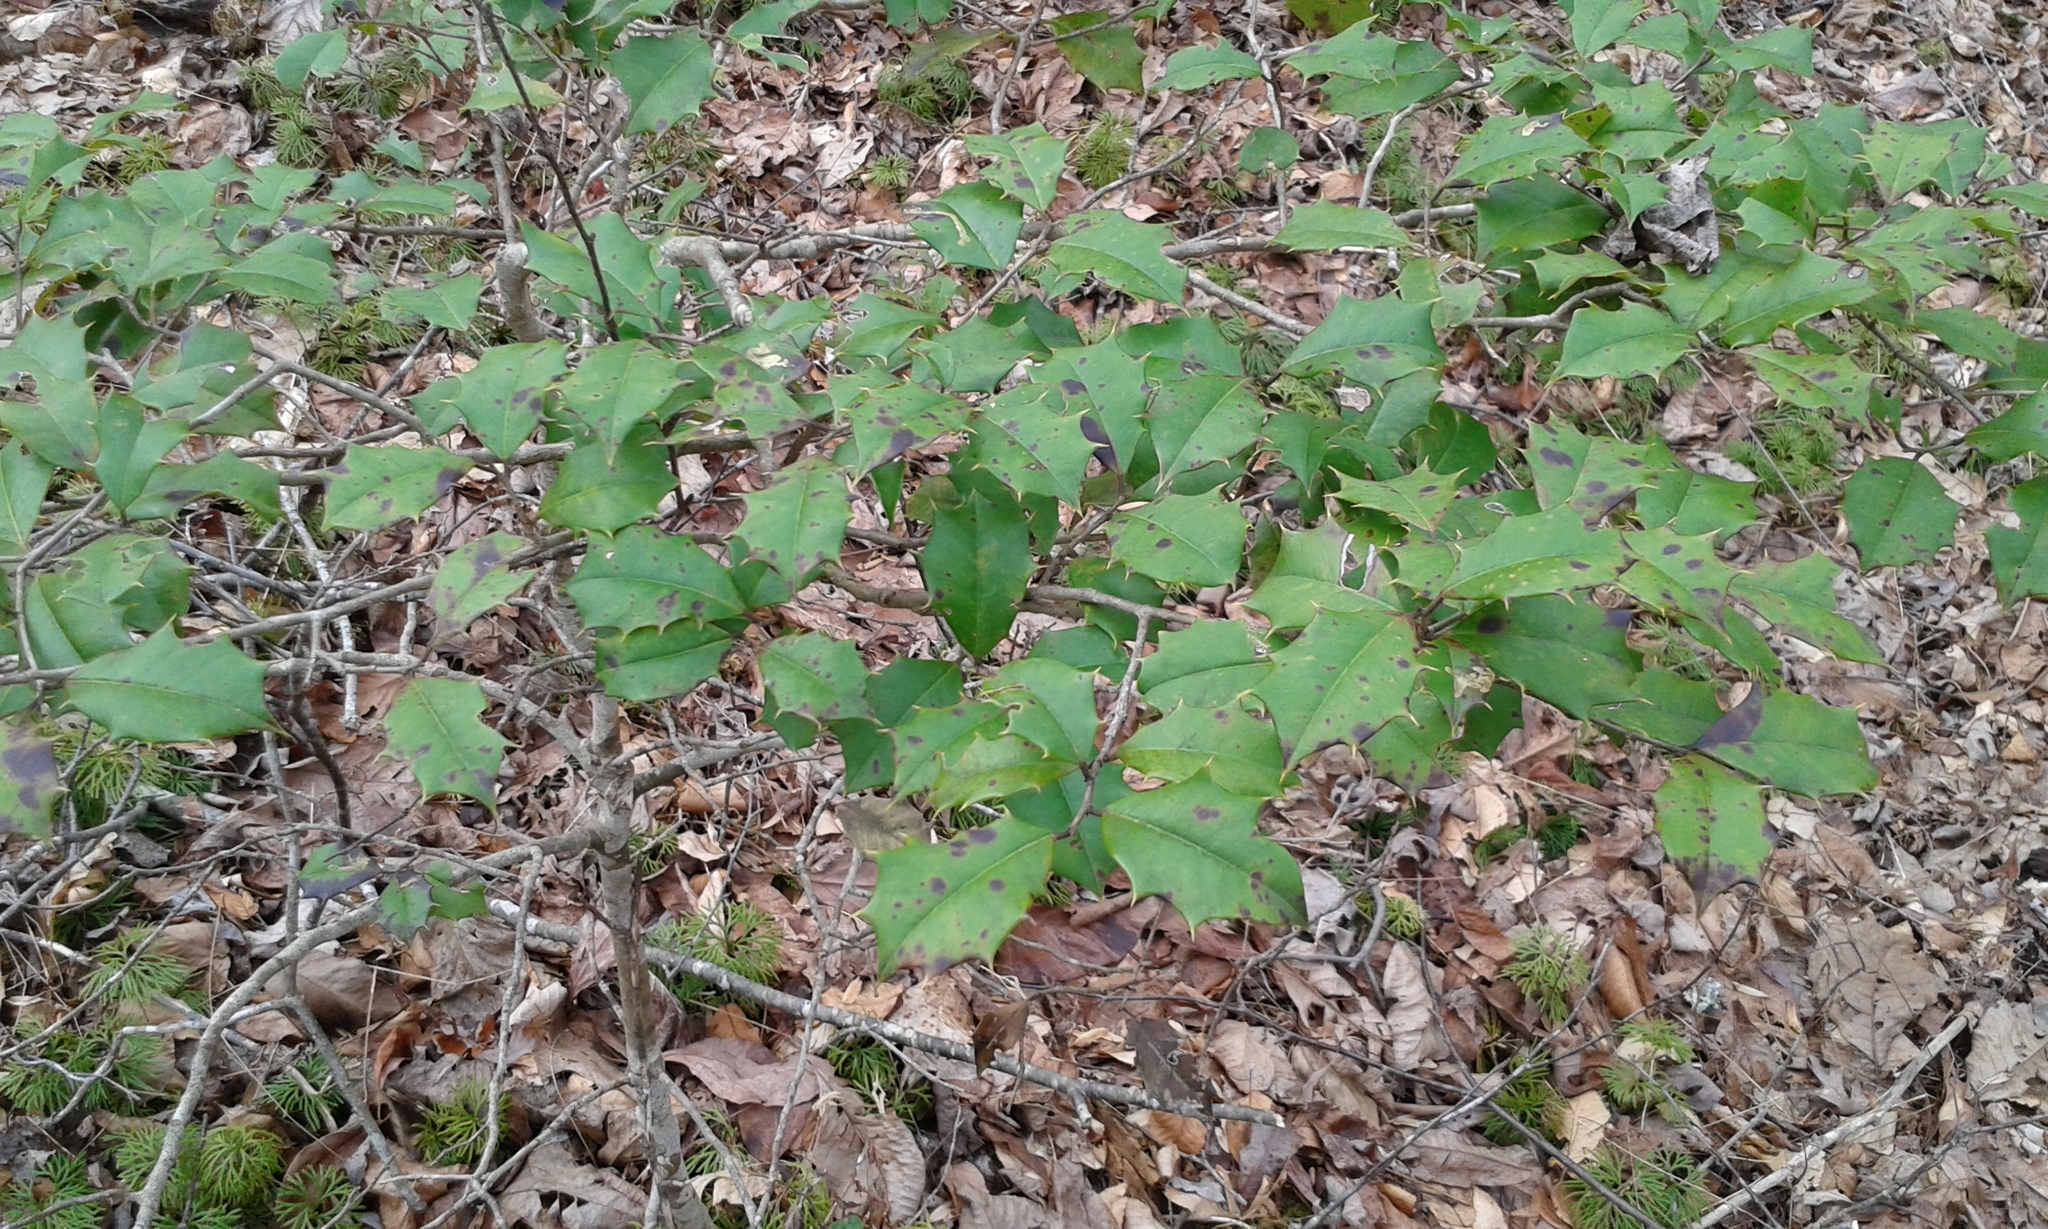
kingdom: Plantae
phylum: Tracheophyta
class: Magnoliopsida
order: Aquifoliales
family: Aquifoliaceae
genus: Ilex
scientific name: Ilex opaca
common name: American holly
